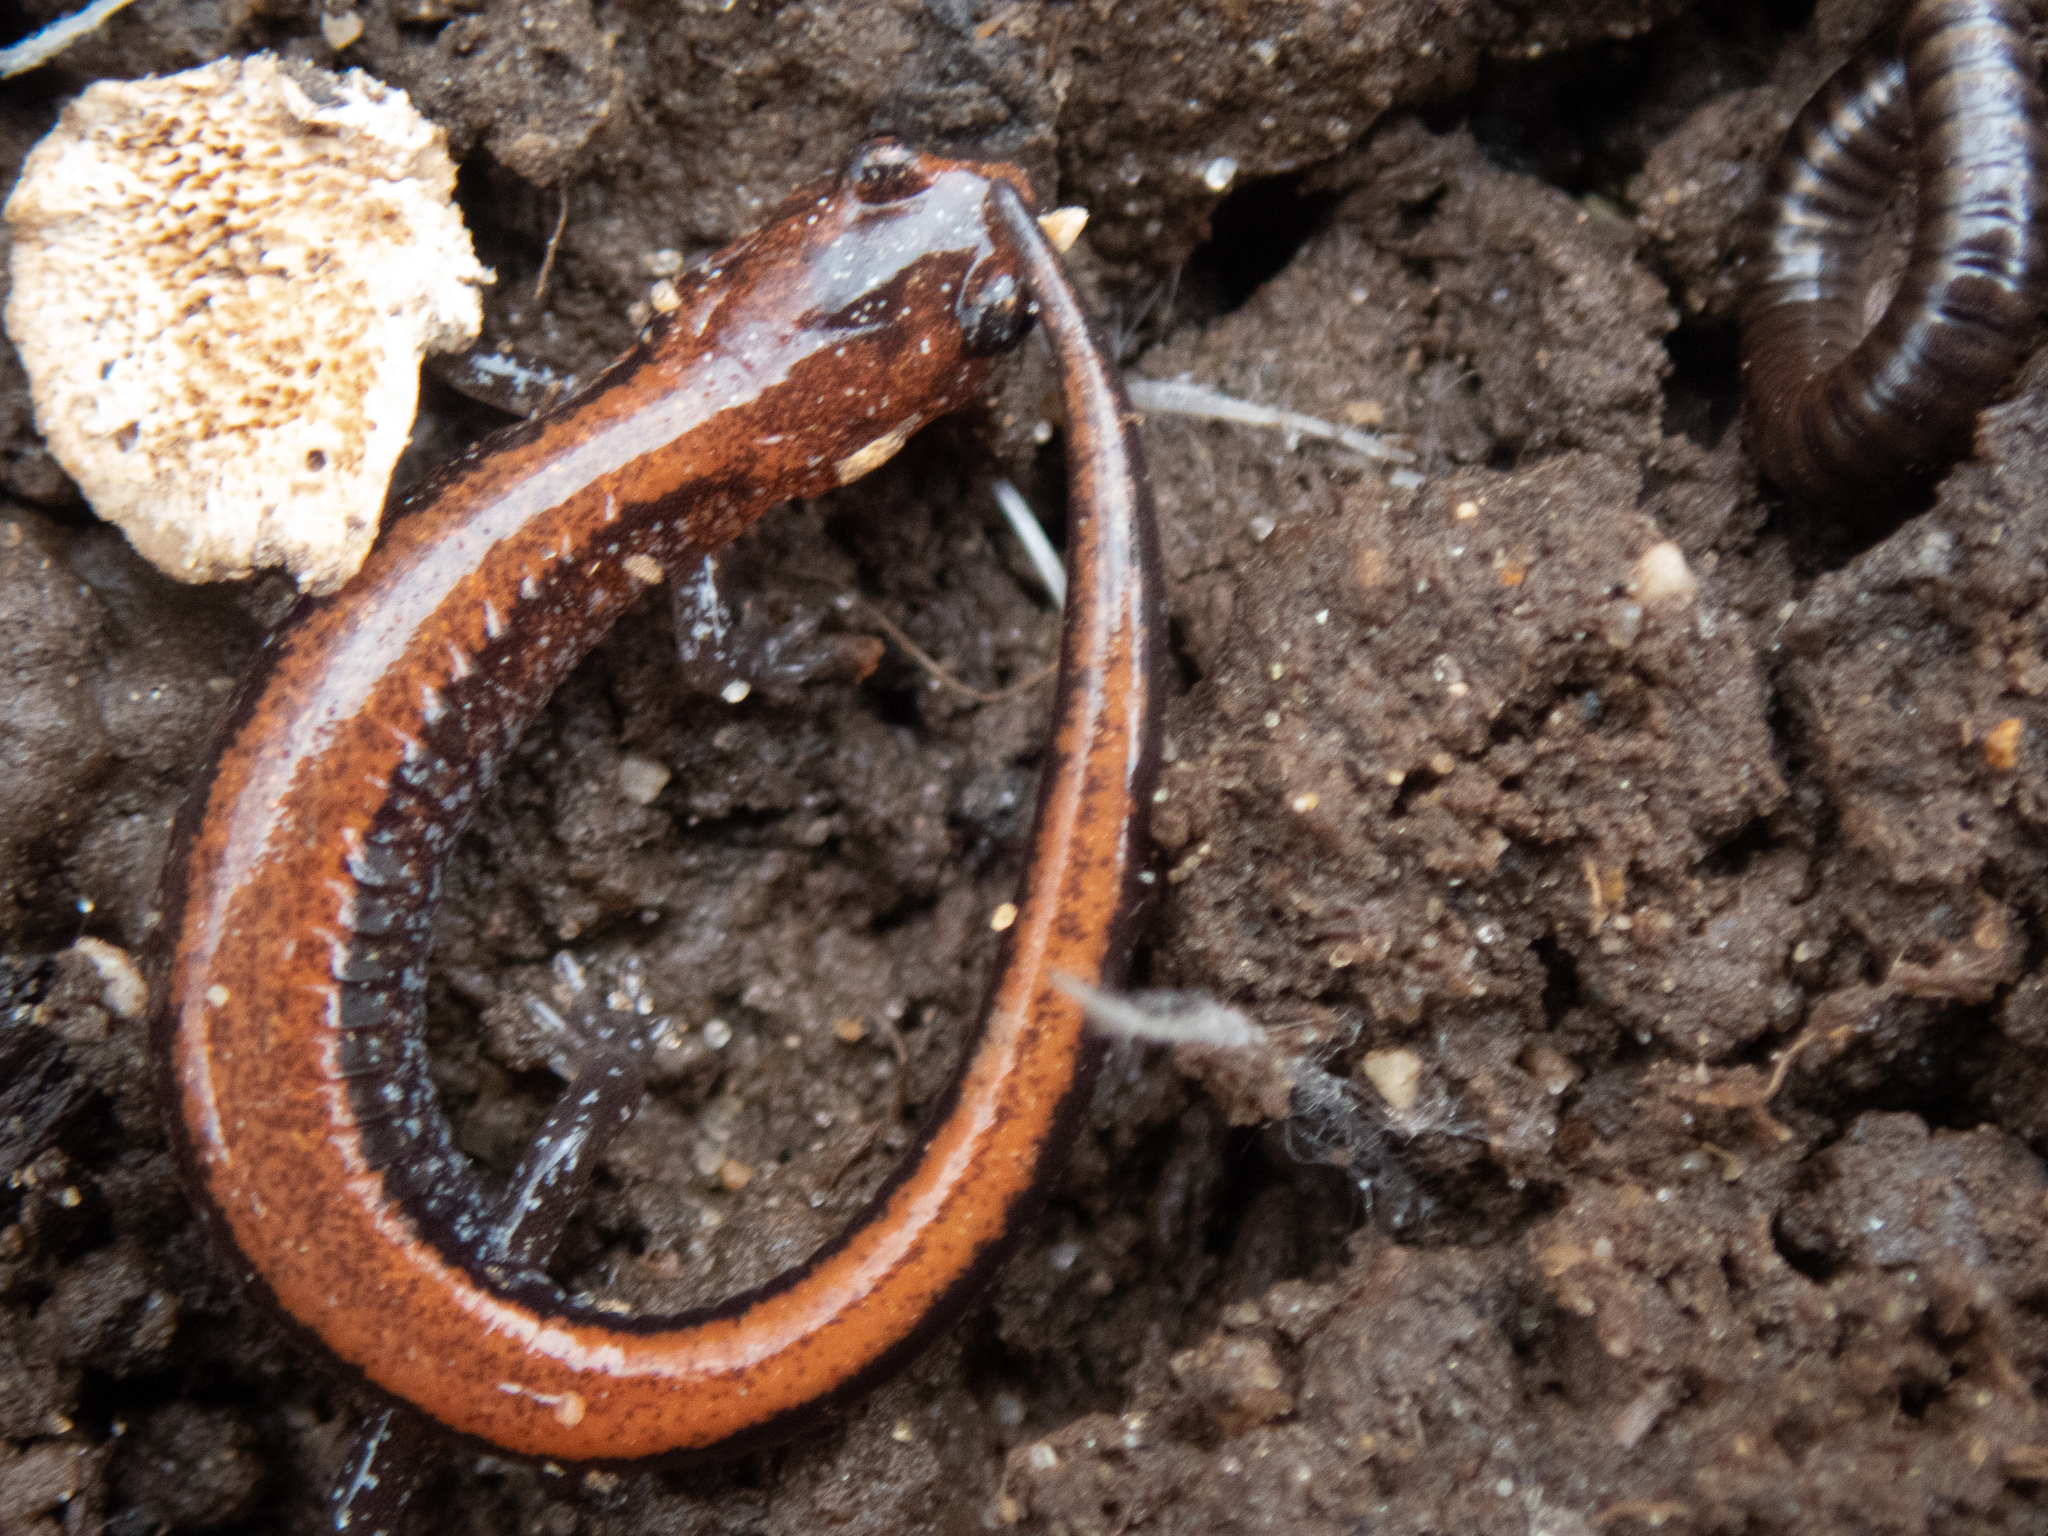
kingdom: Animalia
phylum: Chordata
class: Amphibia
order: Caudata
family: Plethodontidae
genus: Plethodon
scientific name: Plethodon cinereus
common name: Redback salamander
